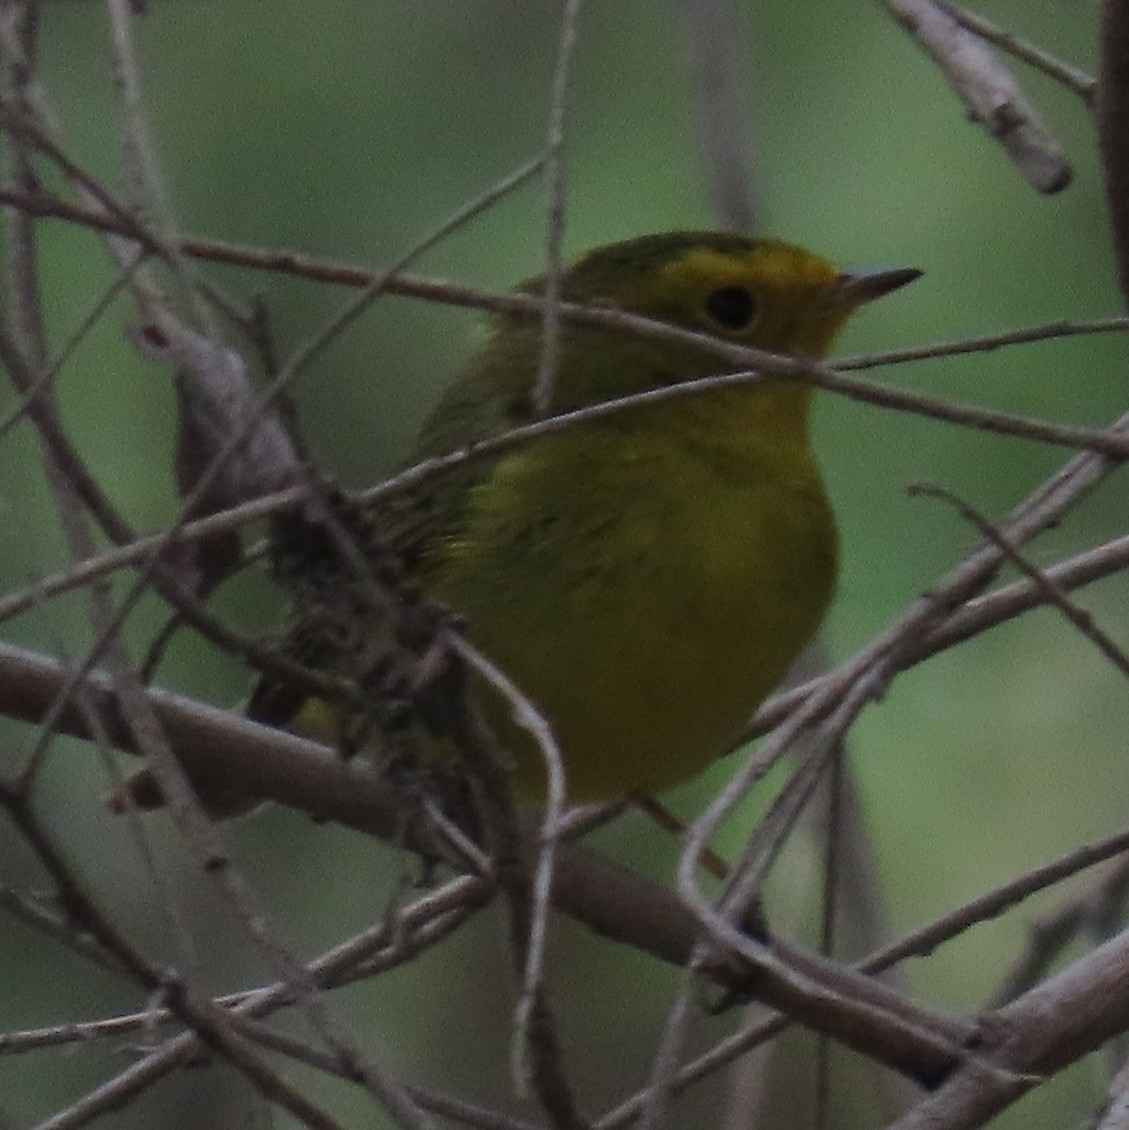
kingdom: Animalia
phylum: Chordata
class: Aves
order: Passeriformes
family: Parulidae
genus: Cardellina
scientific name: Cardellina pusilla
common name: Wilson's warbler
